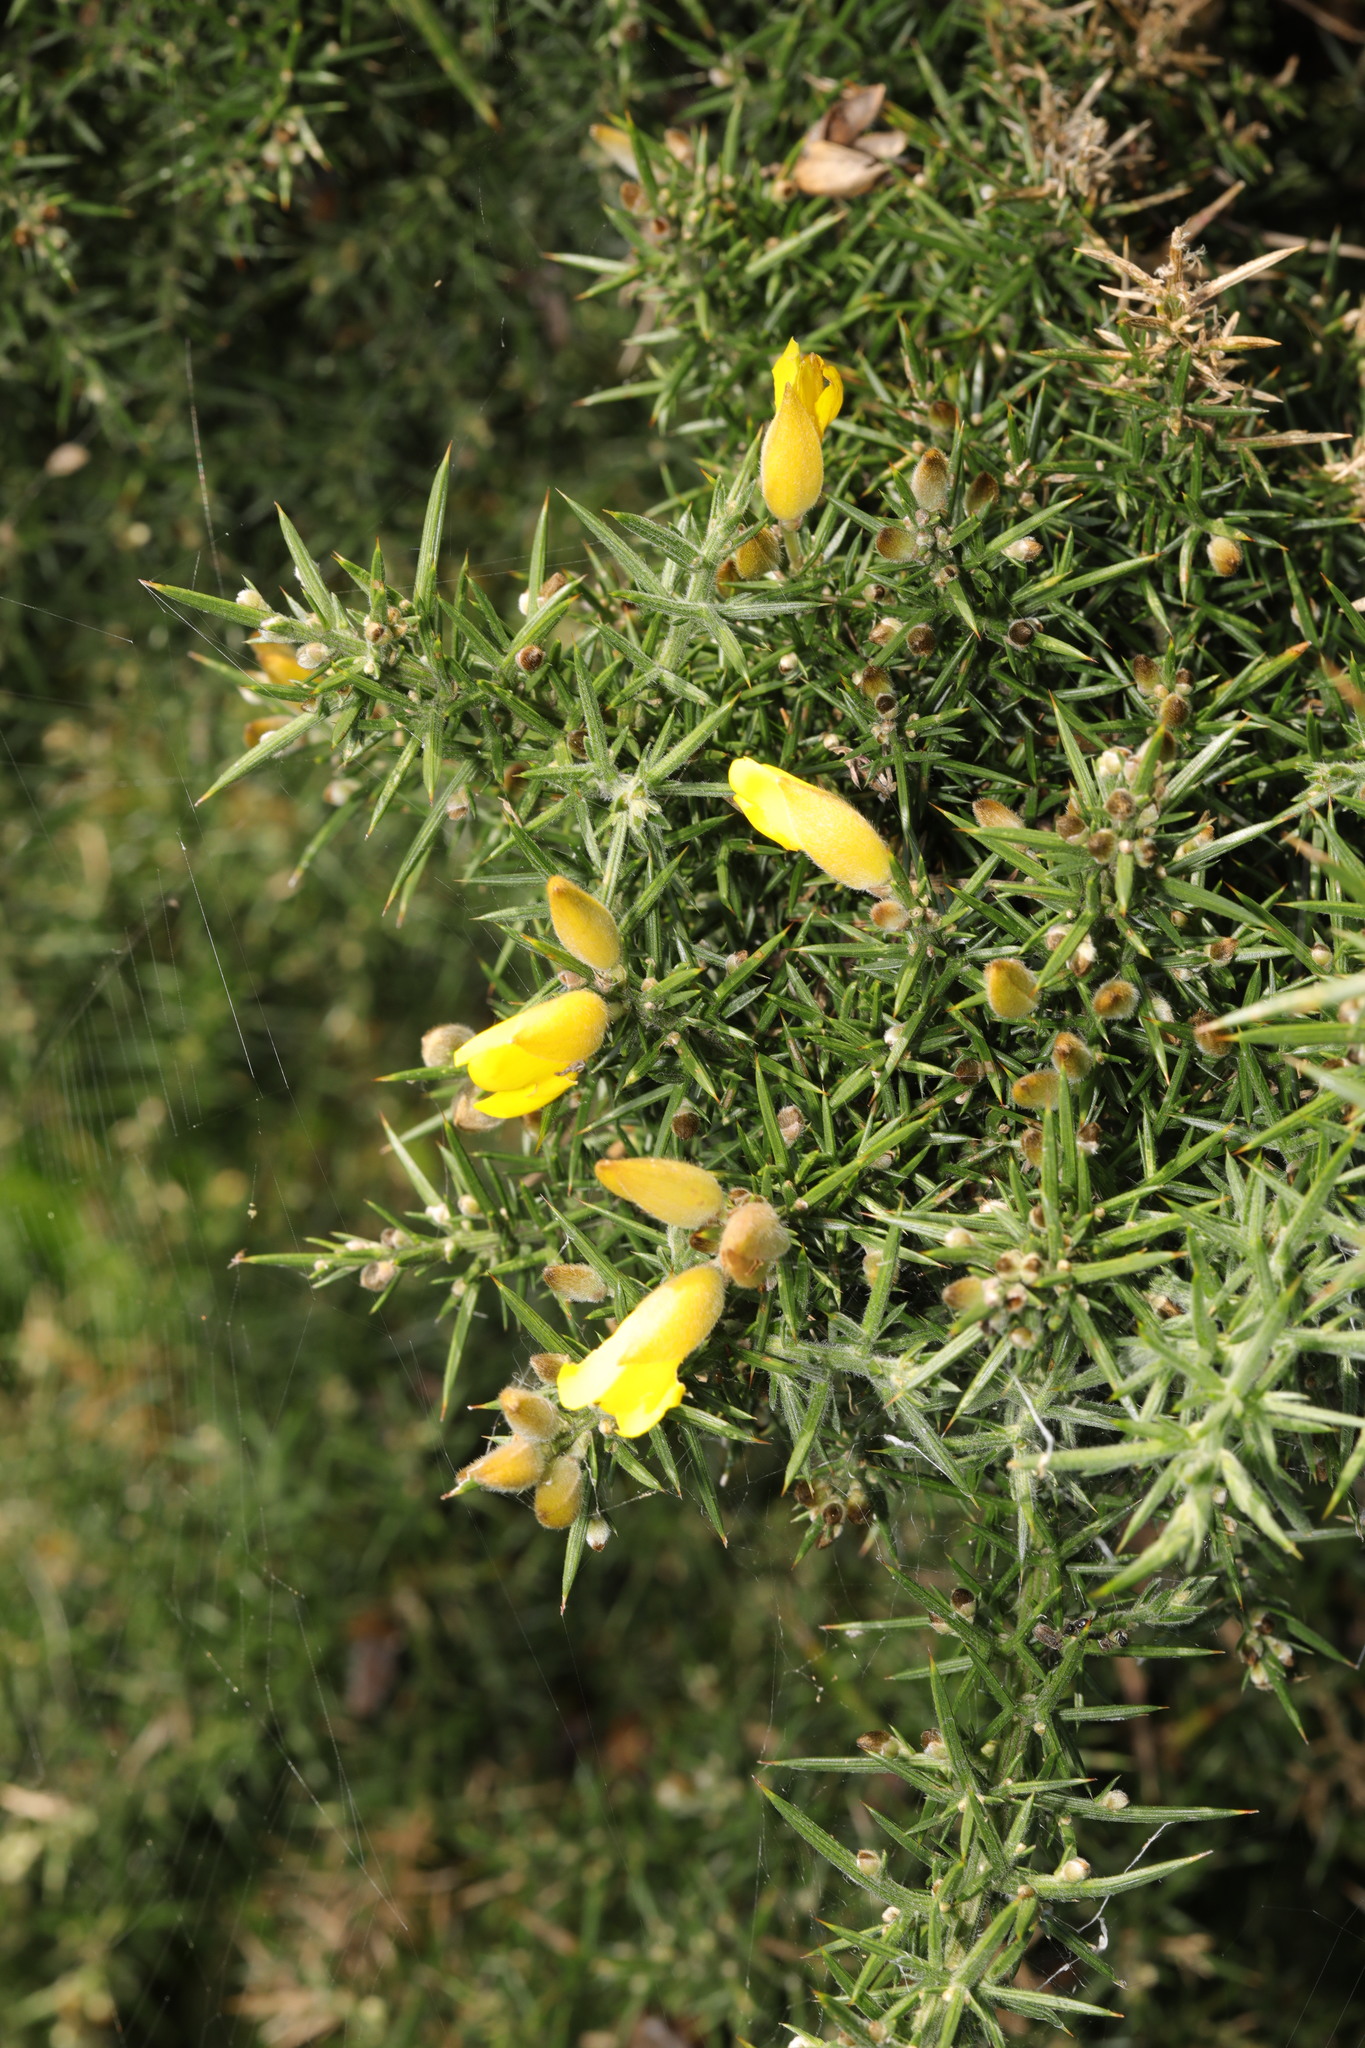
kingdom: Plantae
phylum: Tracheophyta
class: Magnoliopsida
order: Fabales
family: Fabaceae
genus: Ulex
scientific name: Ulex europaeus
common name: Common gorse
